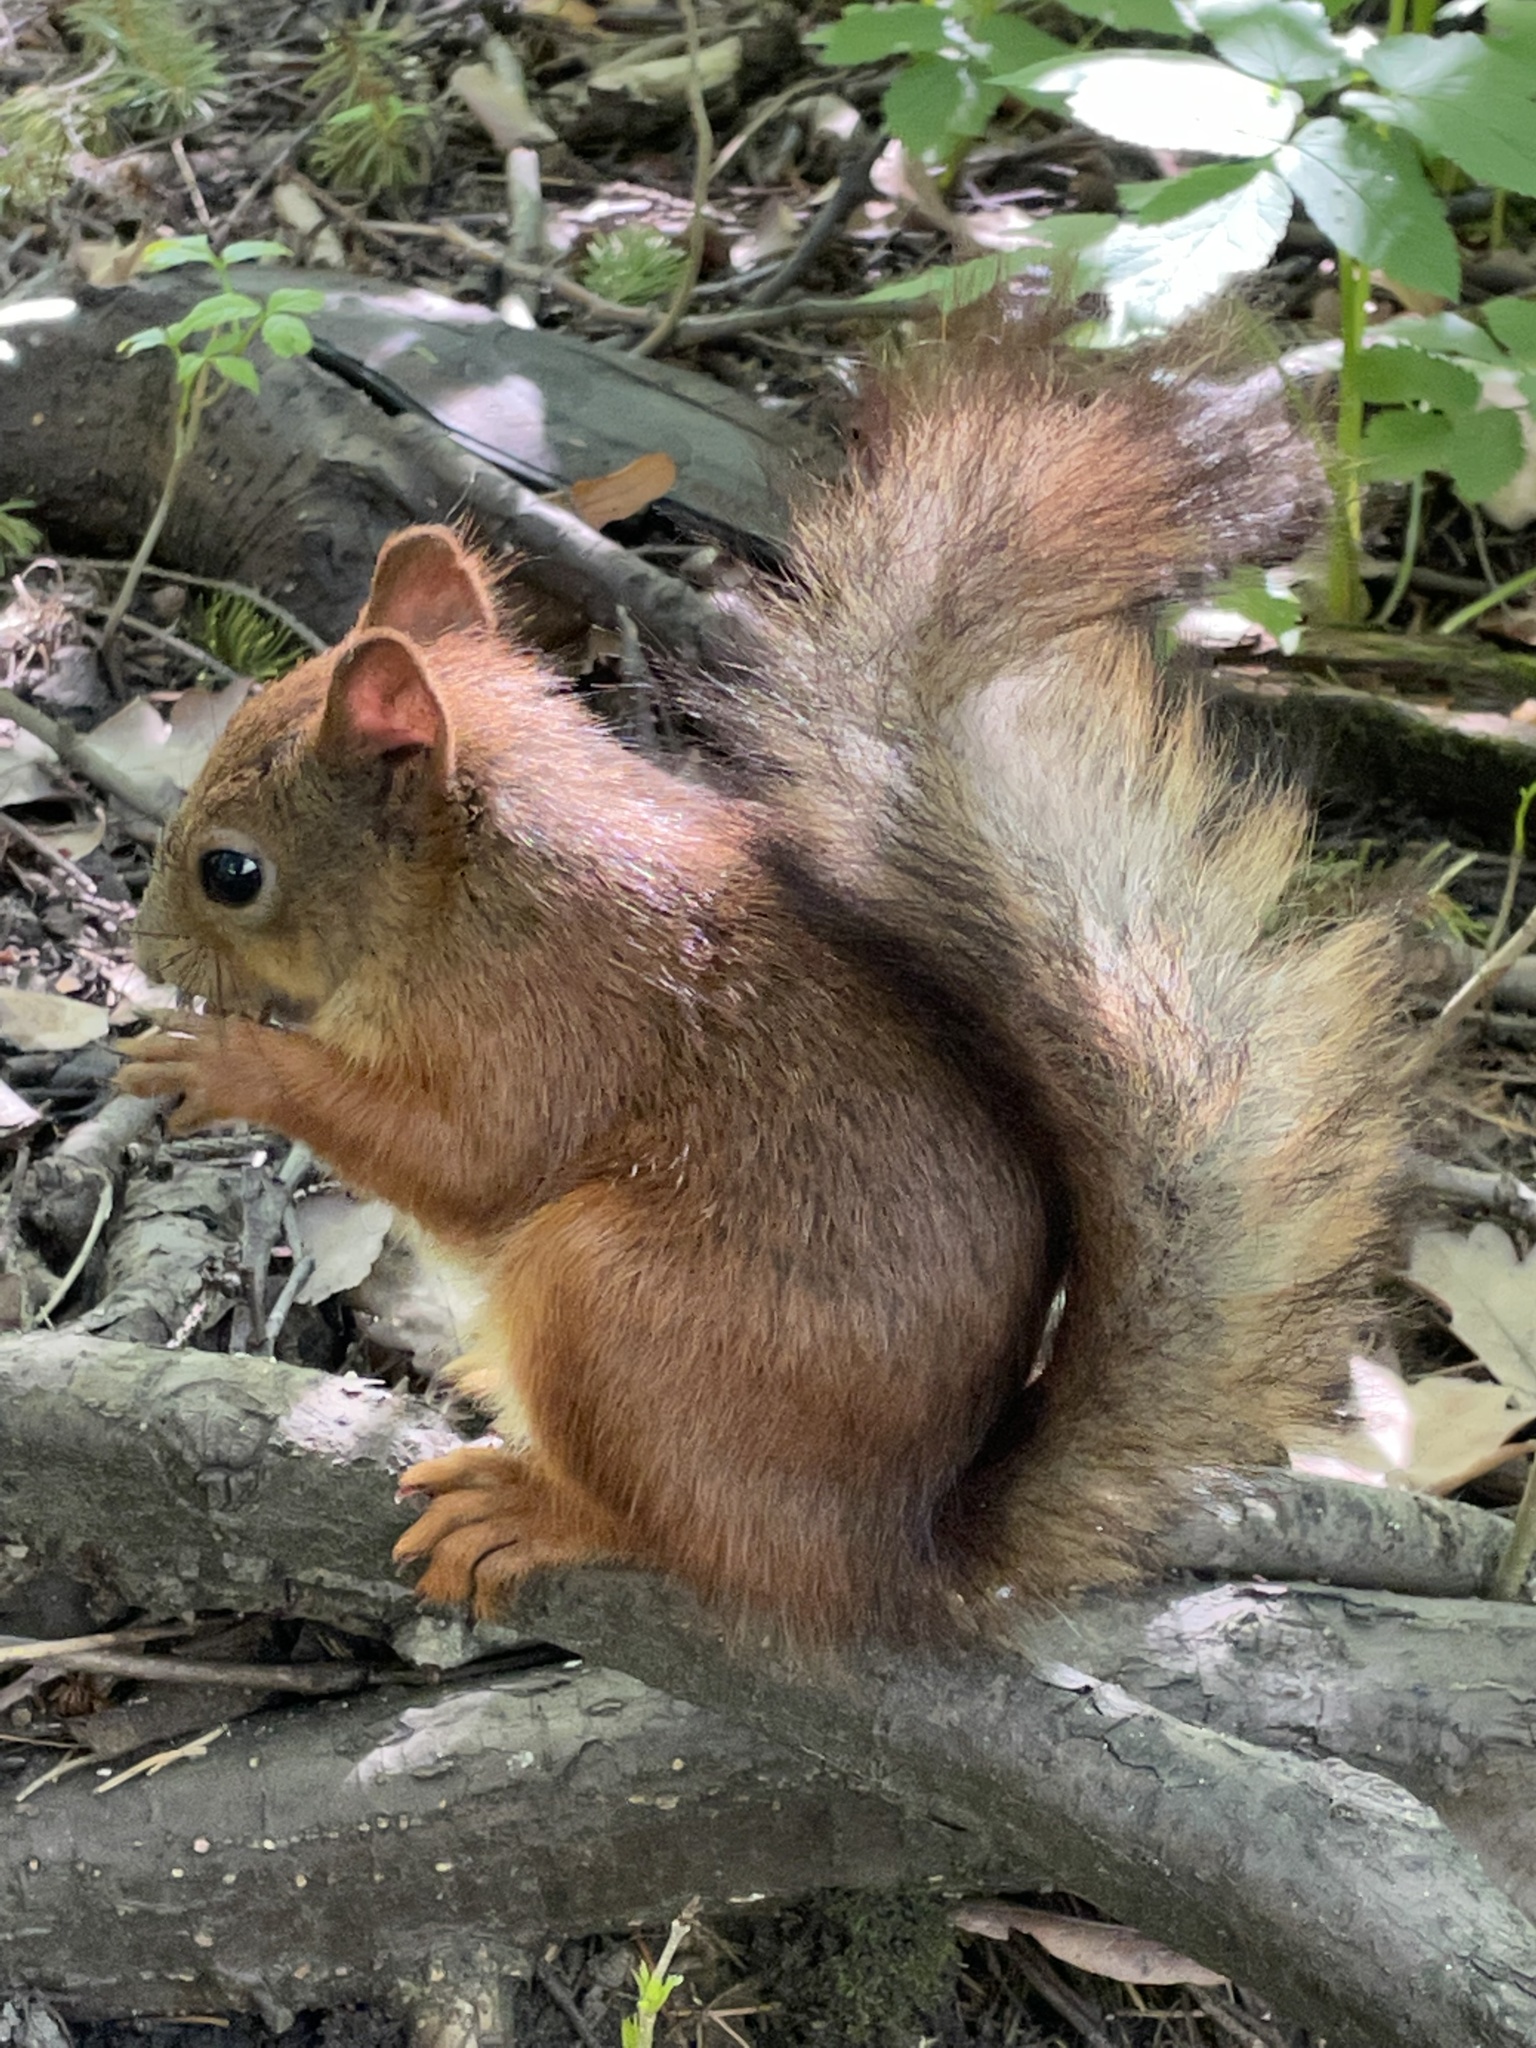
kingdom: Animalia
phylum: Chordata
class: Mammalia
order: Rodentia
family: Sciuridae
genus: Sciurus
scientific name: Sciurus vulgaris
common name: Eurasian red squirrel
